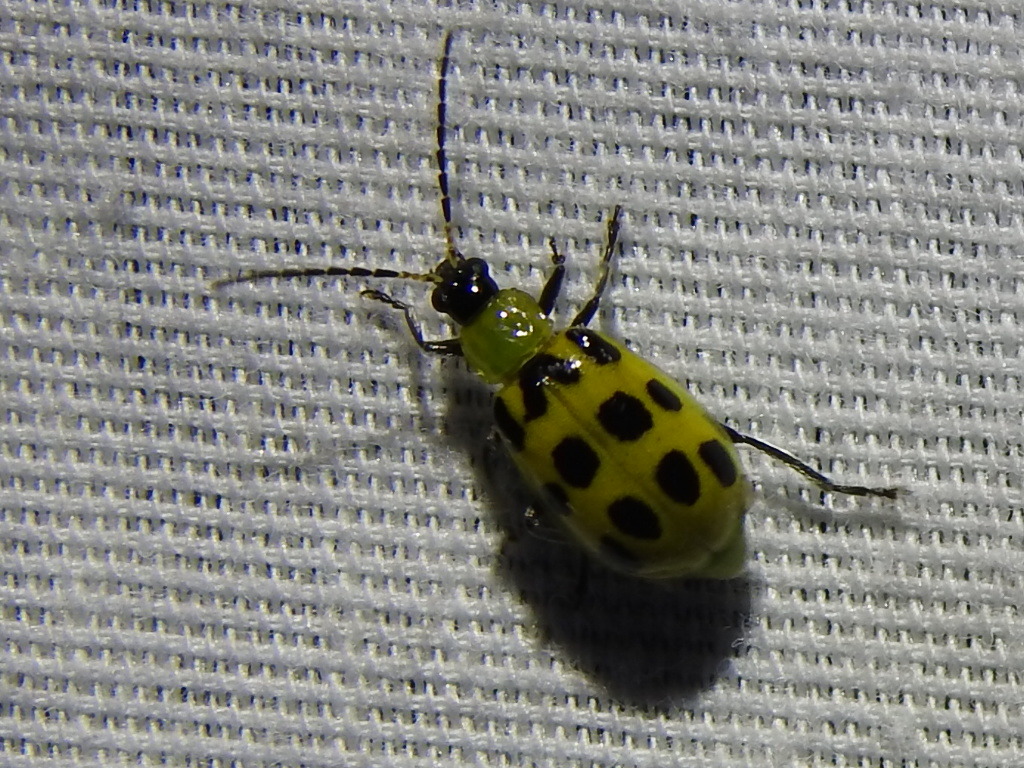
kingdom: Animalia
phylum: Arthropoda
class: Insecta
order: Coleoptera
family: Chrysomelidae
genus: Diabrotica
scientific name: Diabrotica undecimpunctata
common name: Spotted cucumber beetle
